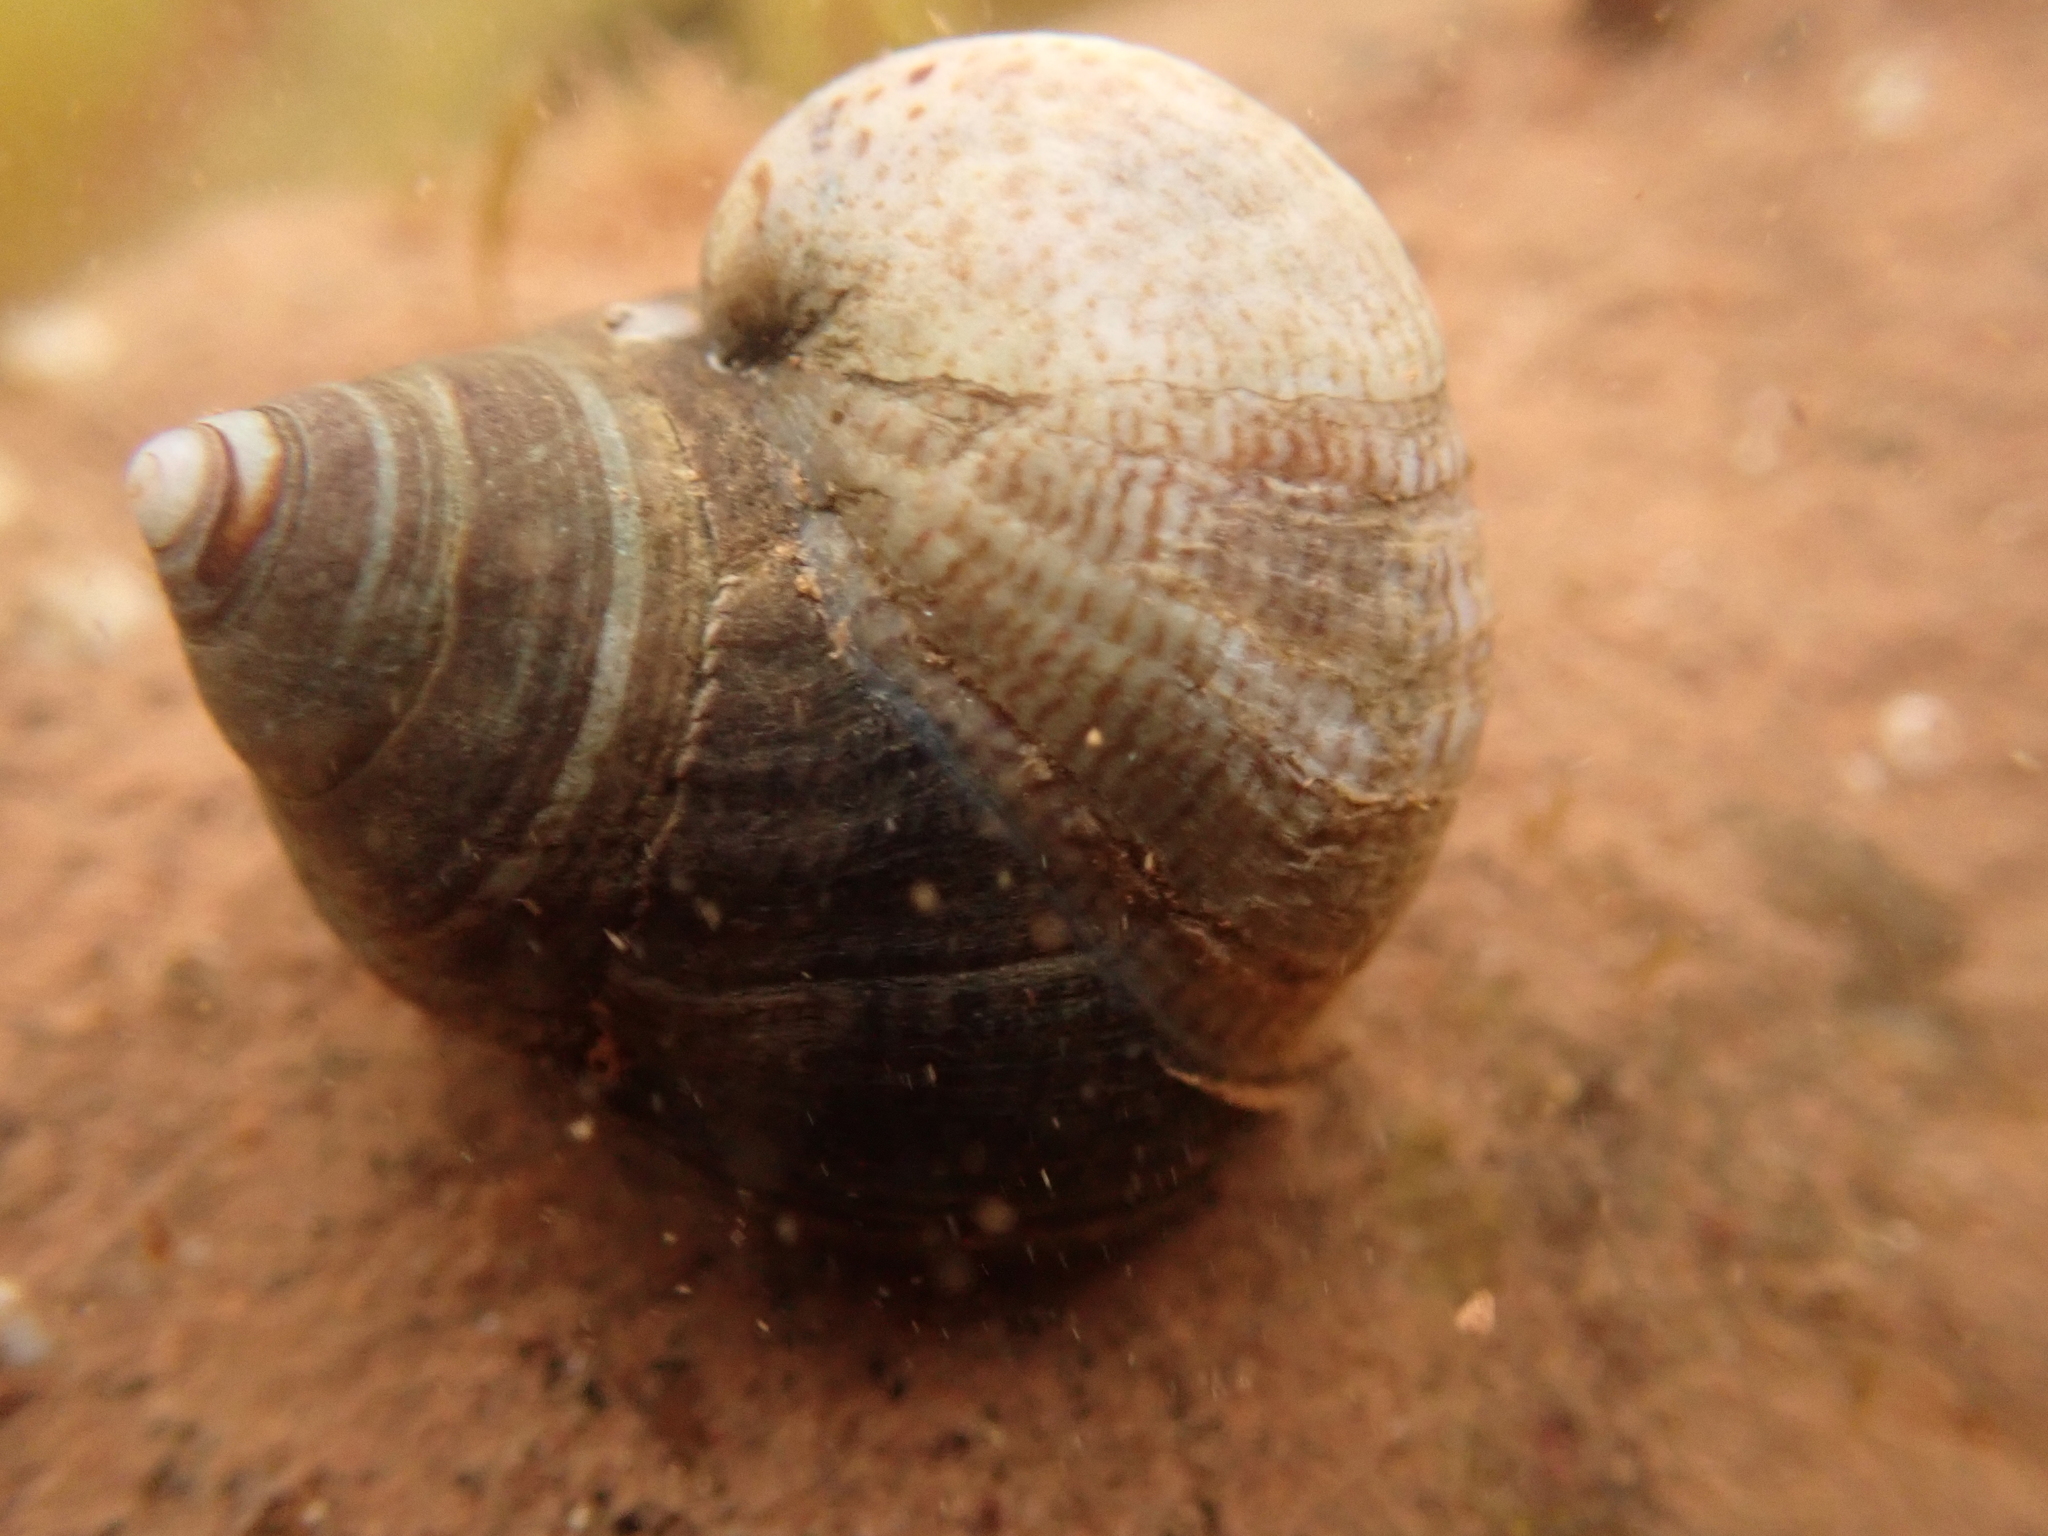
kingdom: Animalia
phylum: Mollusca
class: Gastropoda
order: Littorinimorpha
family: Calyptraeidae
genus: Crepidula
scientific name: Crepidula fornicata
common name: Slipper limpet
